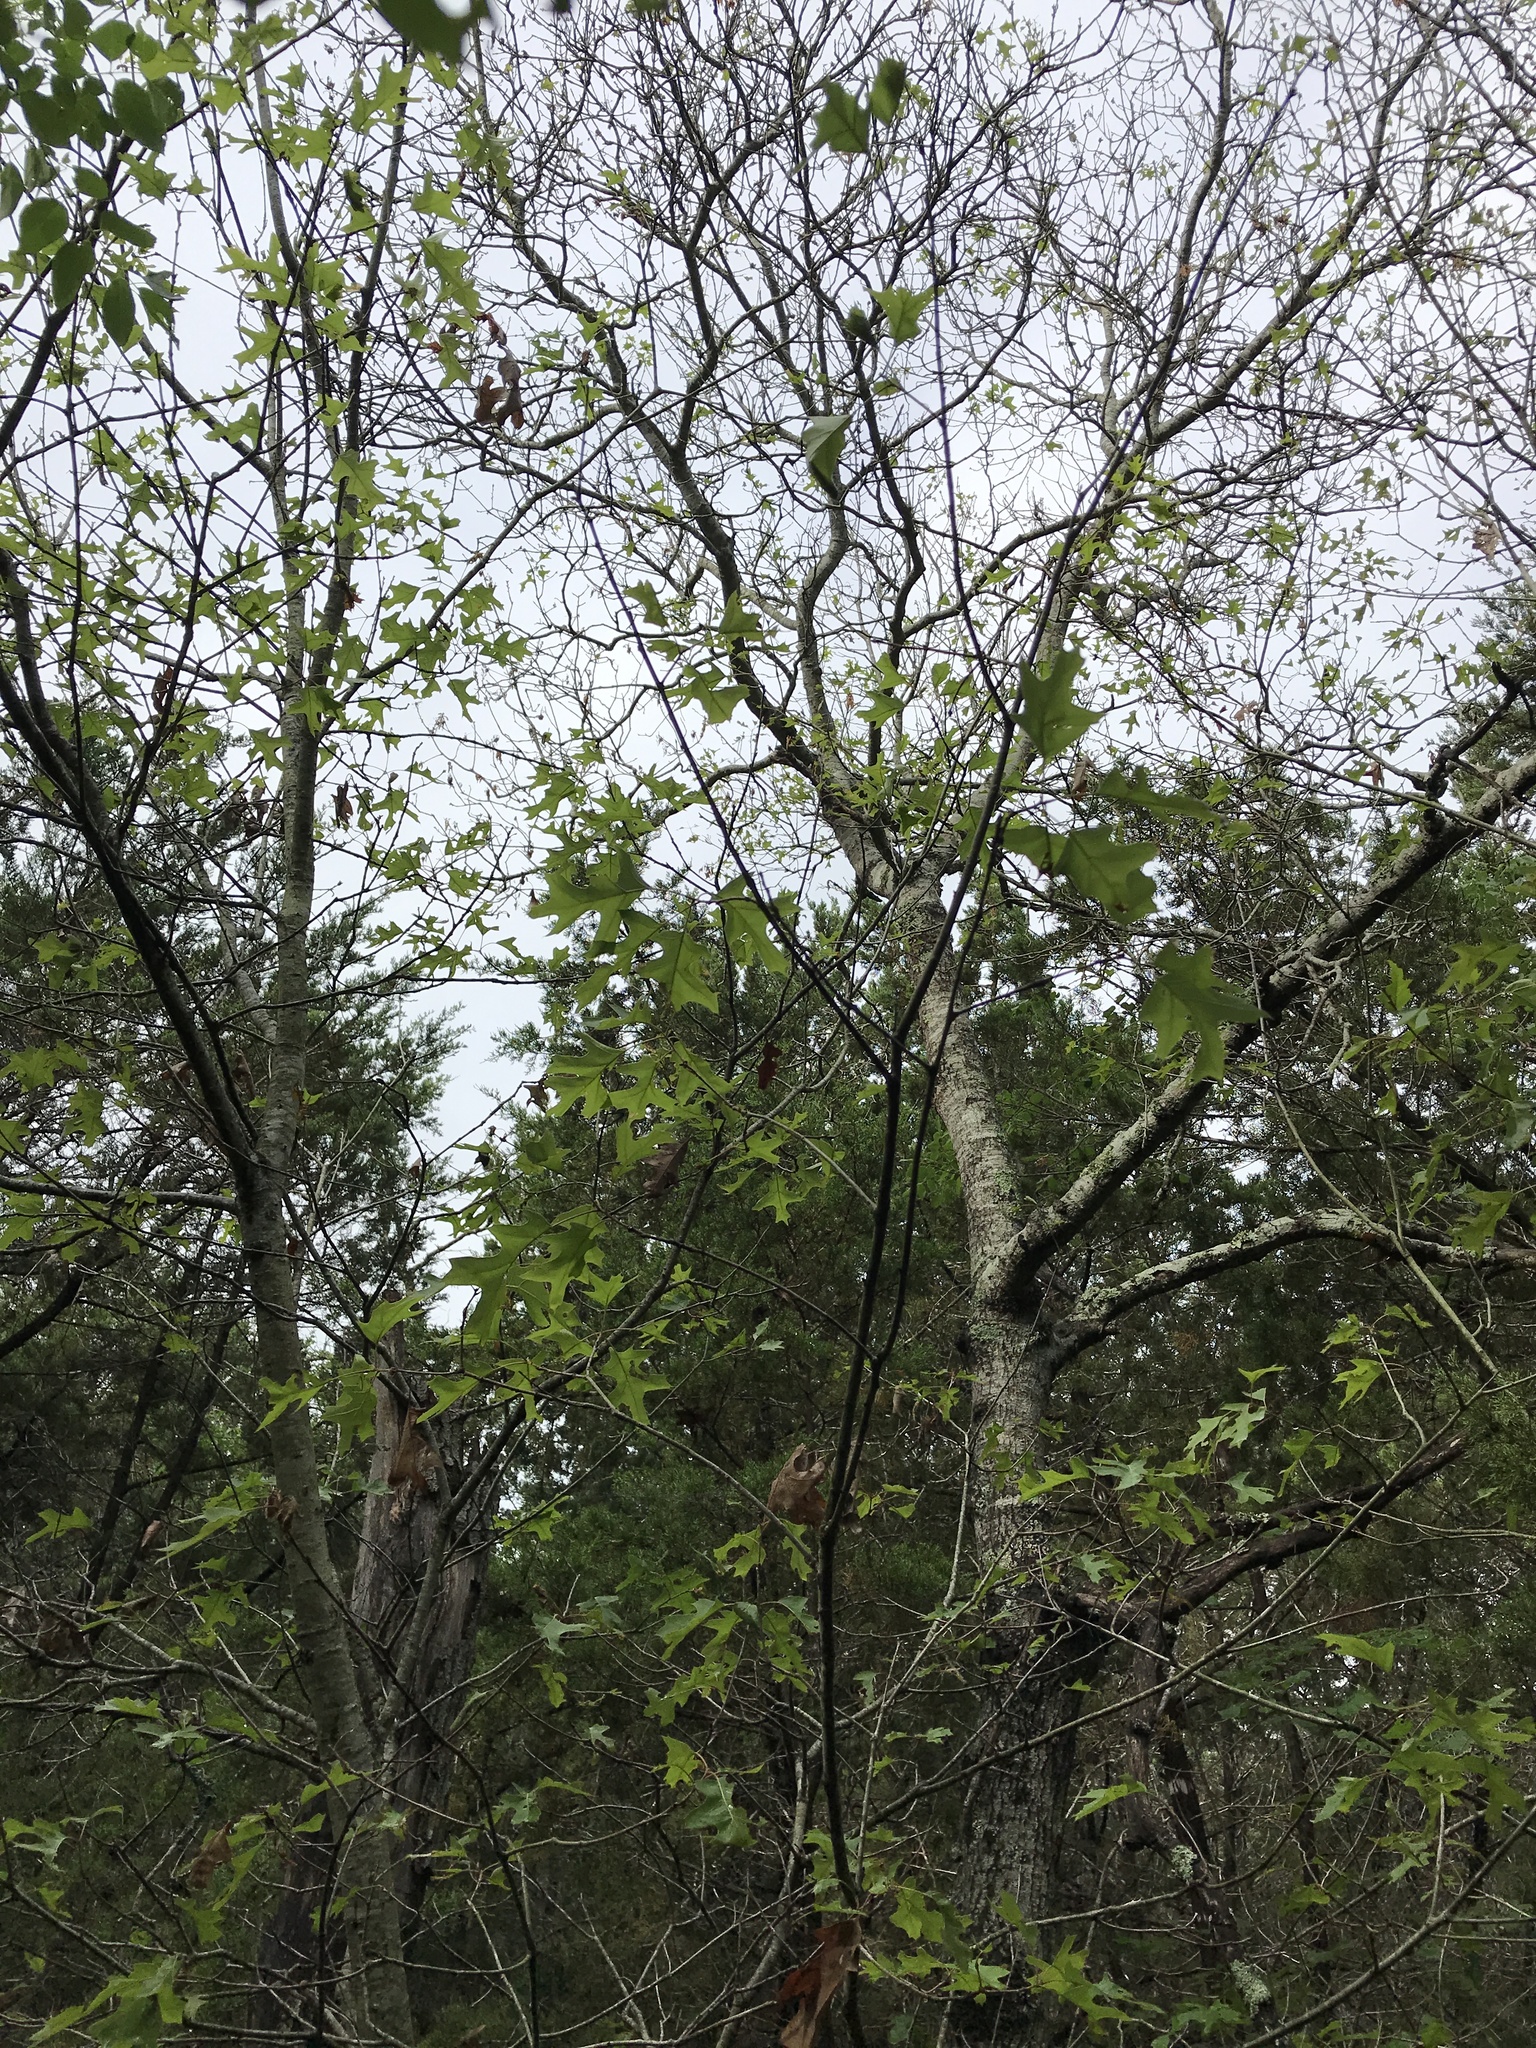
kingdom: Plantae
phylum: Tracheophyta
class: Magnoliopsida
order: Fagales
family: Fagaceae
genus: Quercus
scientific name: Quercus buckleyi
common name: Buckley oak
